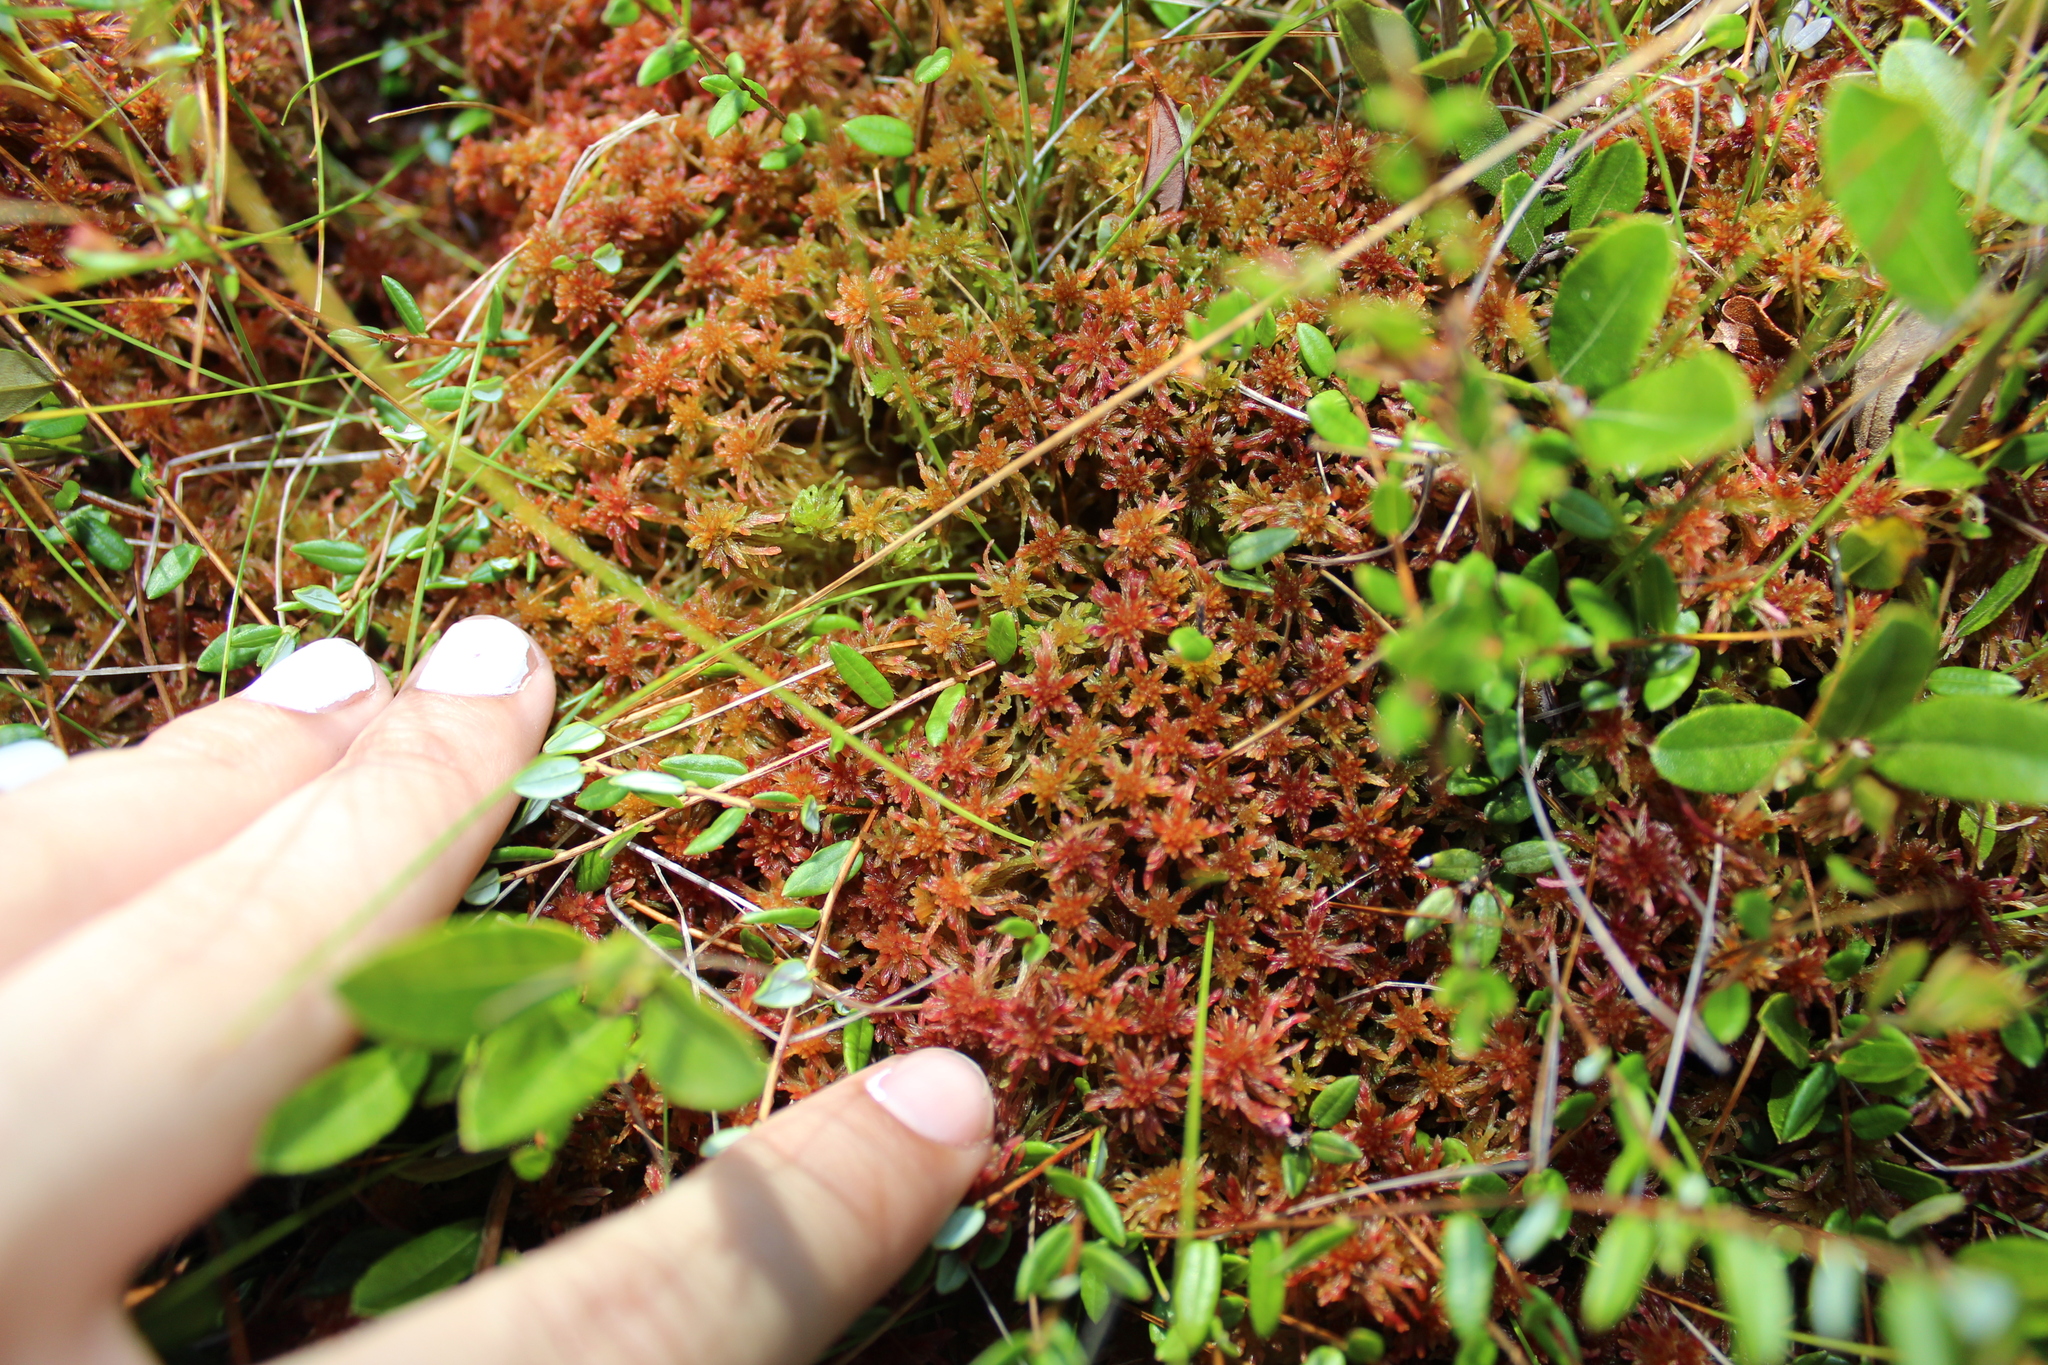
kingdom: Plantae
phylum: Tracheophyta
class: Magnoliopsida
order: Ericales
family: Ericaceae
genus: Vaccinium
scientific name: Vaccinium oxycoccos
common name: Cranberry
